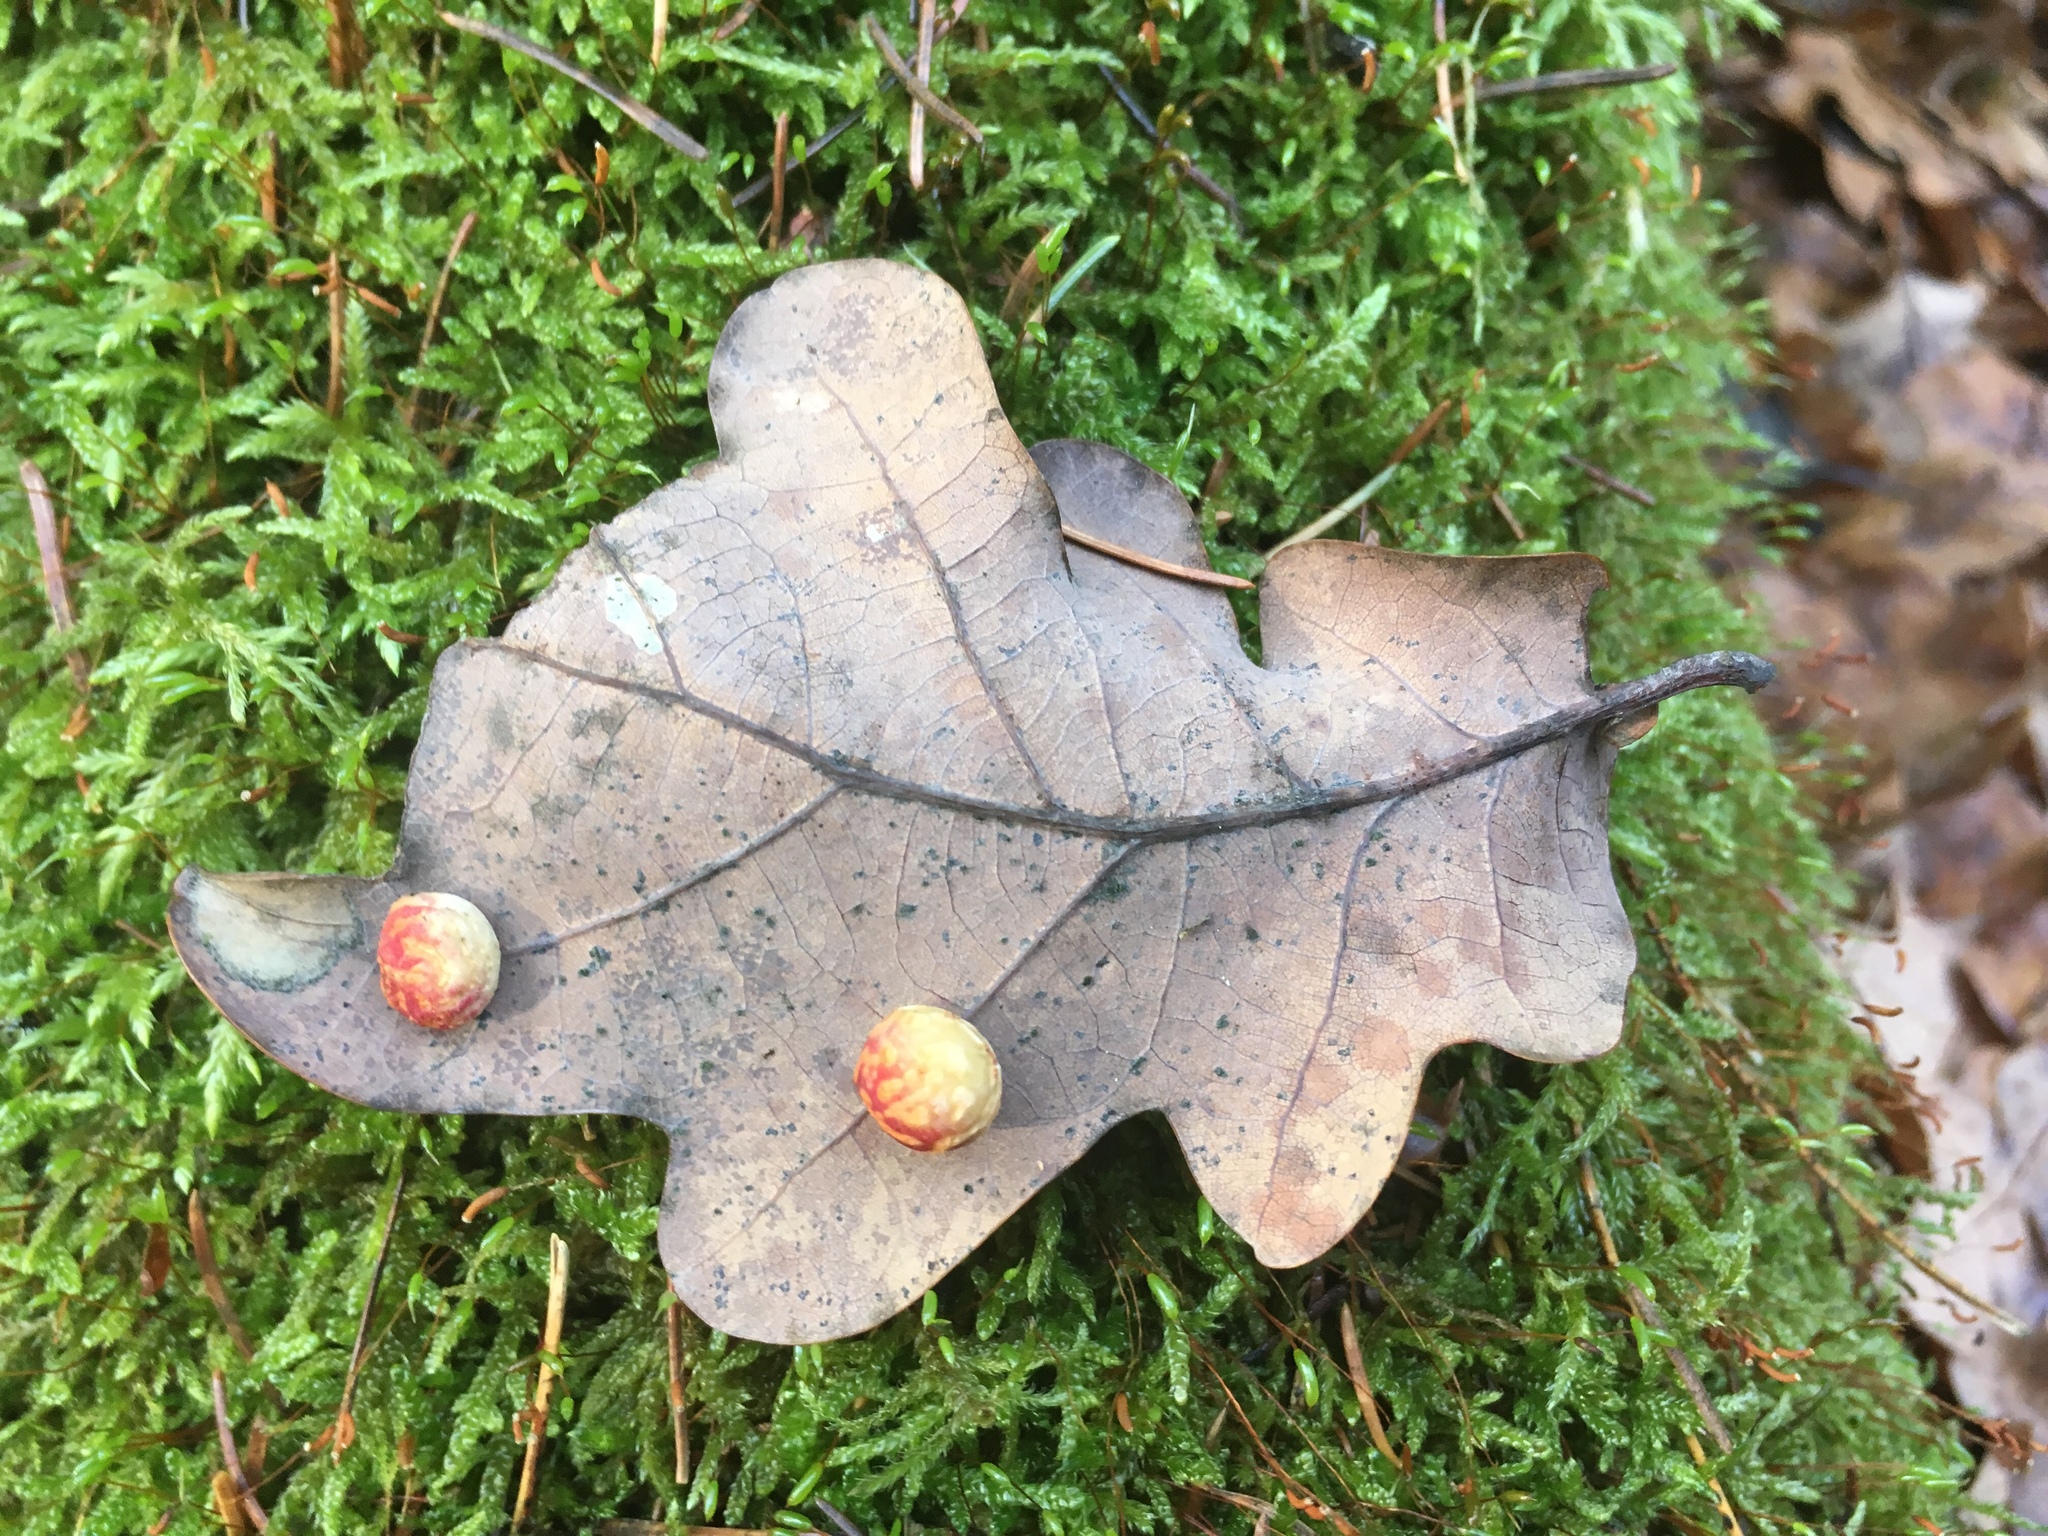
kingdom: Animalia
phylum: Arthropoda
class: Insecta
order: Hymenoptera
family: Cynipidae
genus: Cynips
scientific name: Cynips quercusfolii
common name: Cherry gall
